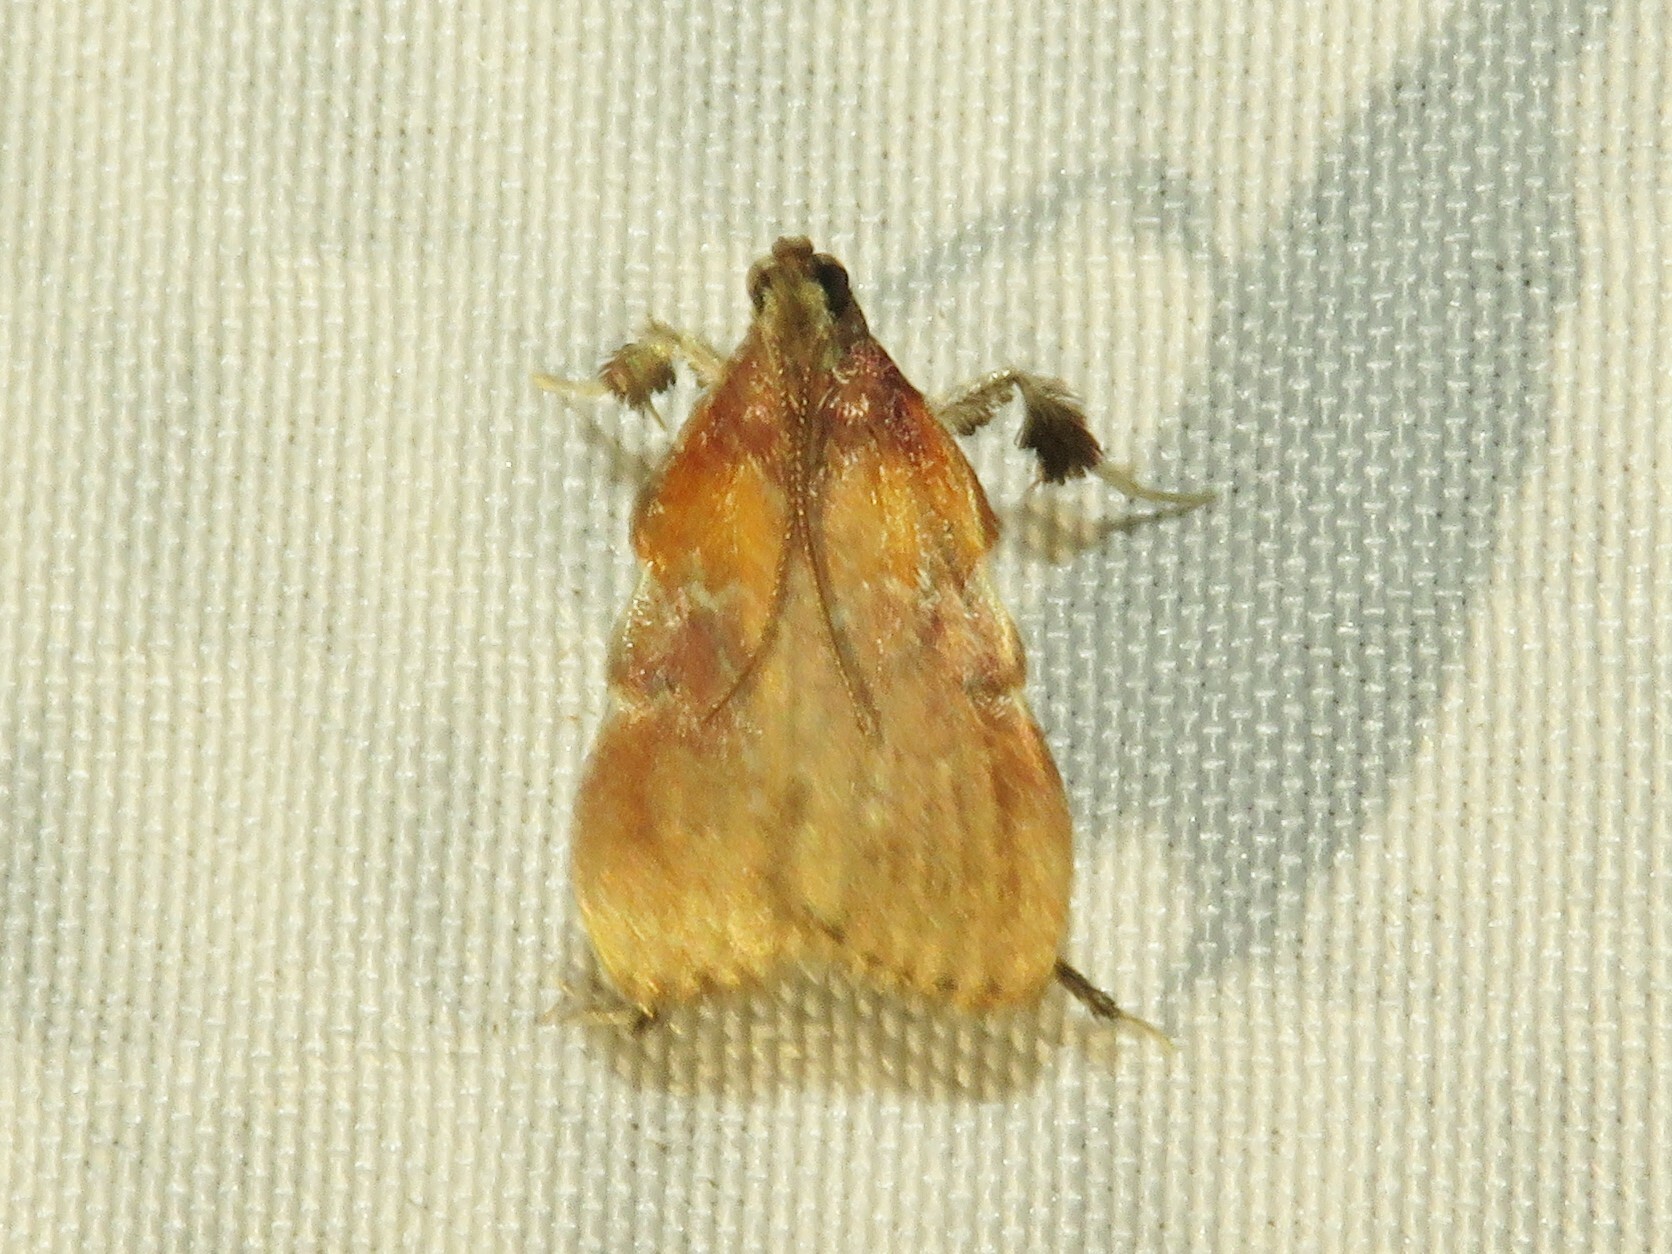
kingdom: Animalia
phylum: Arthropoda
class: Insecta
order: Lepidoptera
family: Pyralidae
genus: Galasa
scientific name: Galasa nigrinodis
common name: Boxwood leaftier moth
